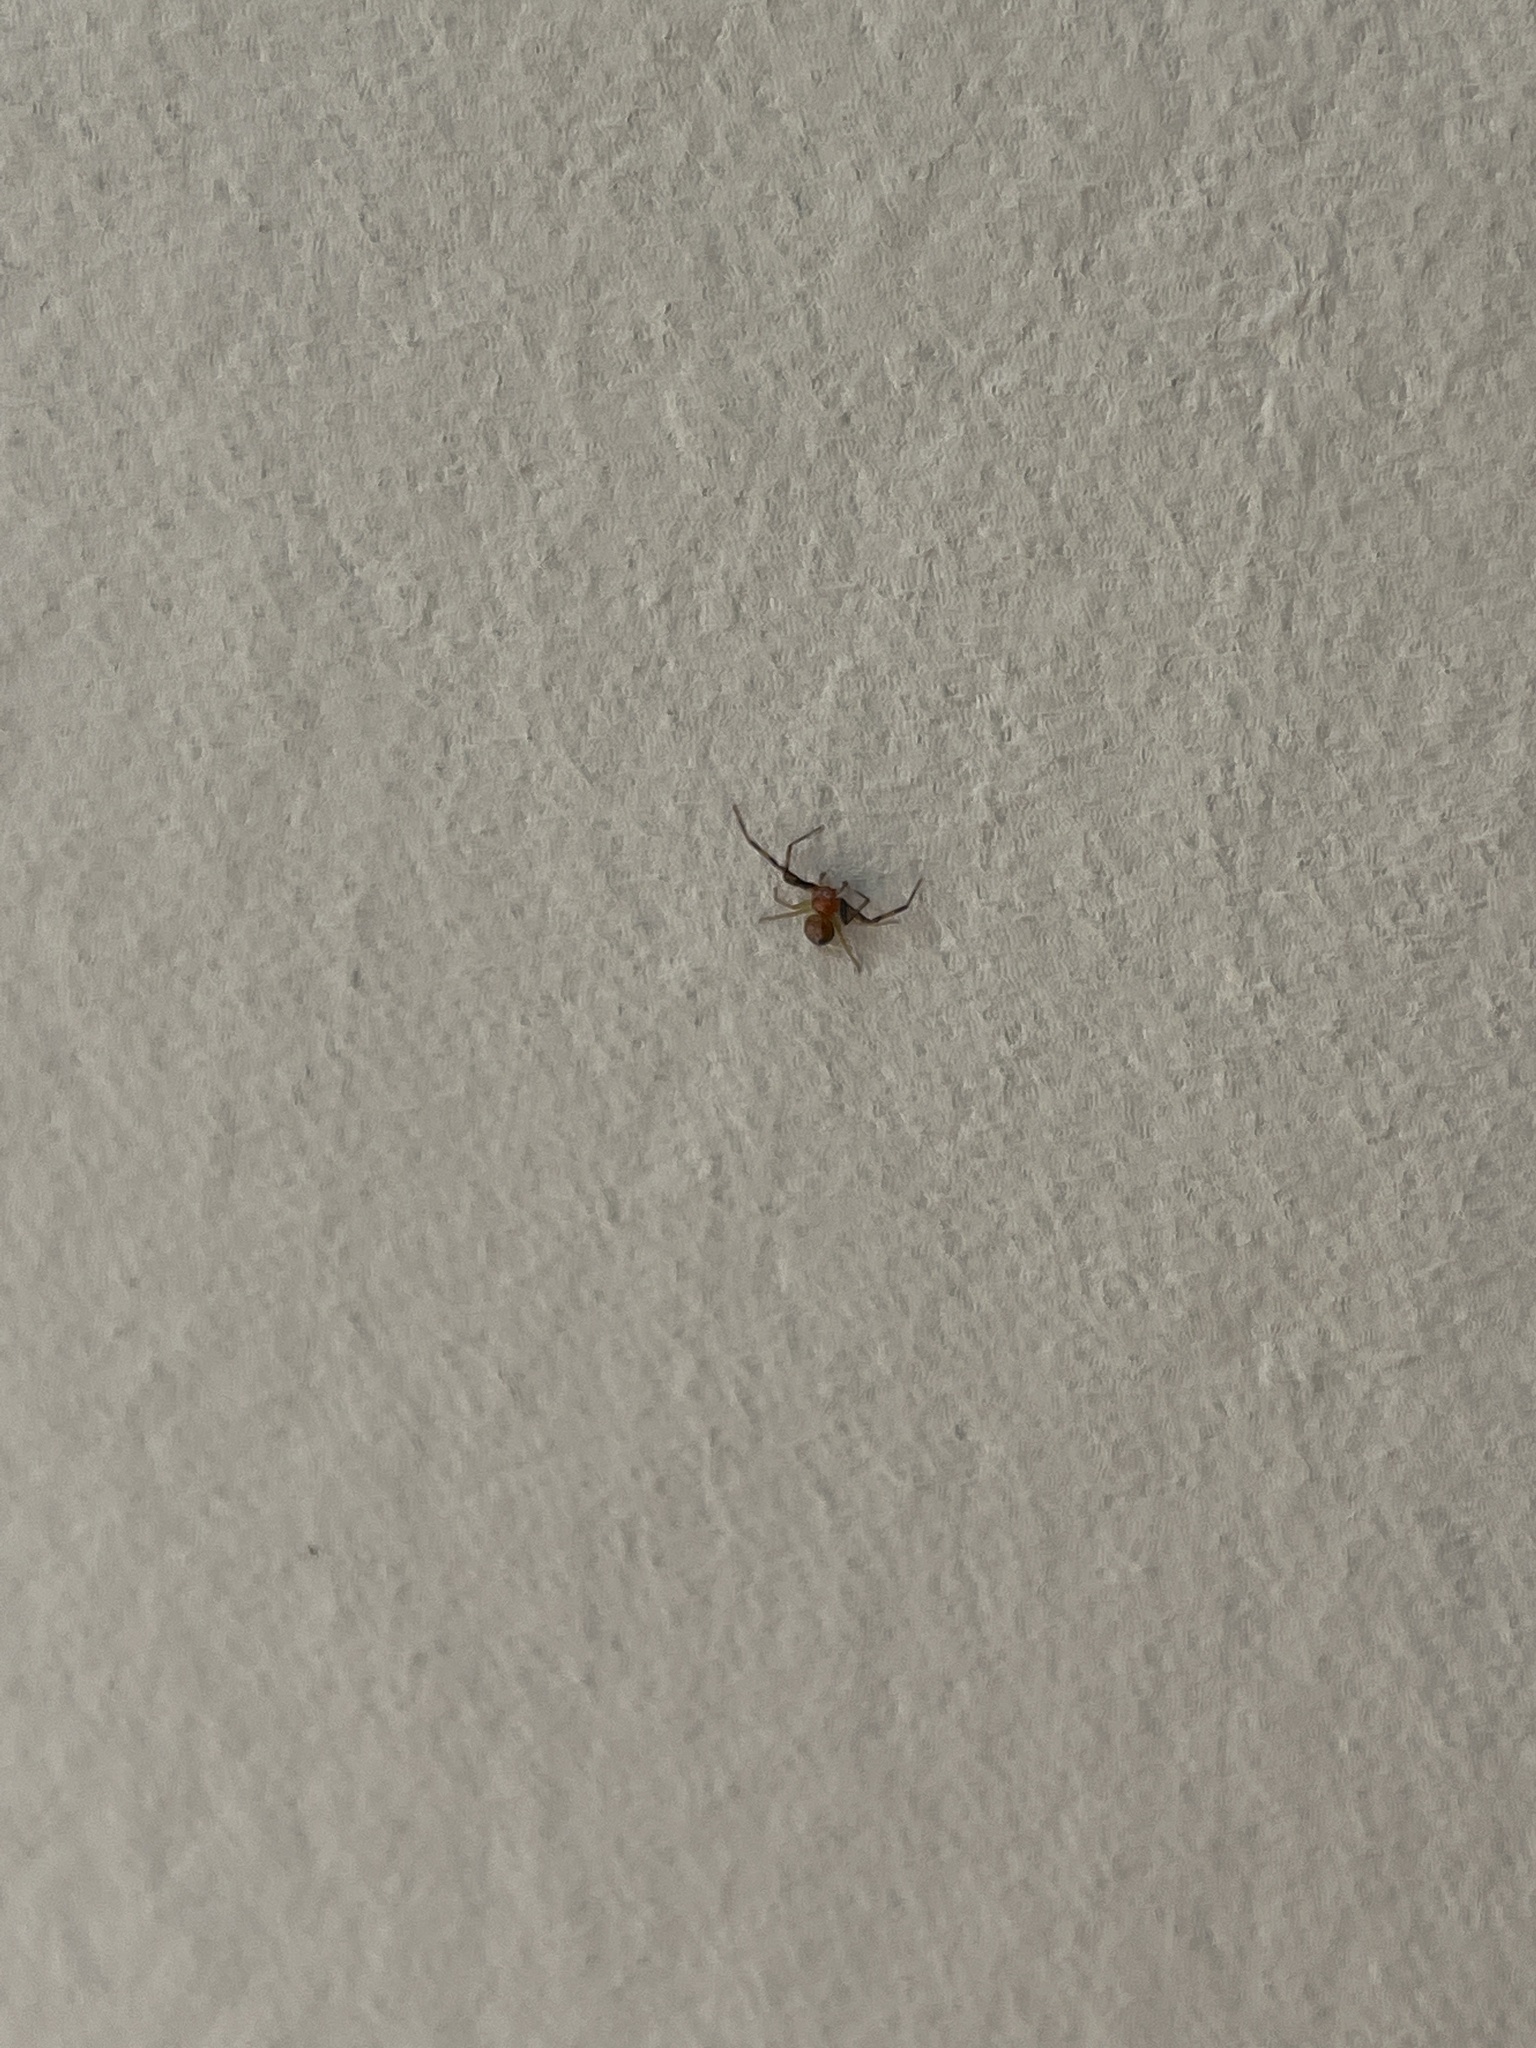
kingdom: Animalia
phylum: Arthropoda
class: Arachnida
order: Araneae
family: Thomisidae
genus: Synema
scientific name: Synema parvulum
